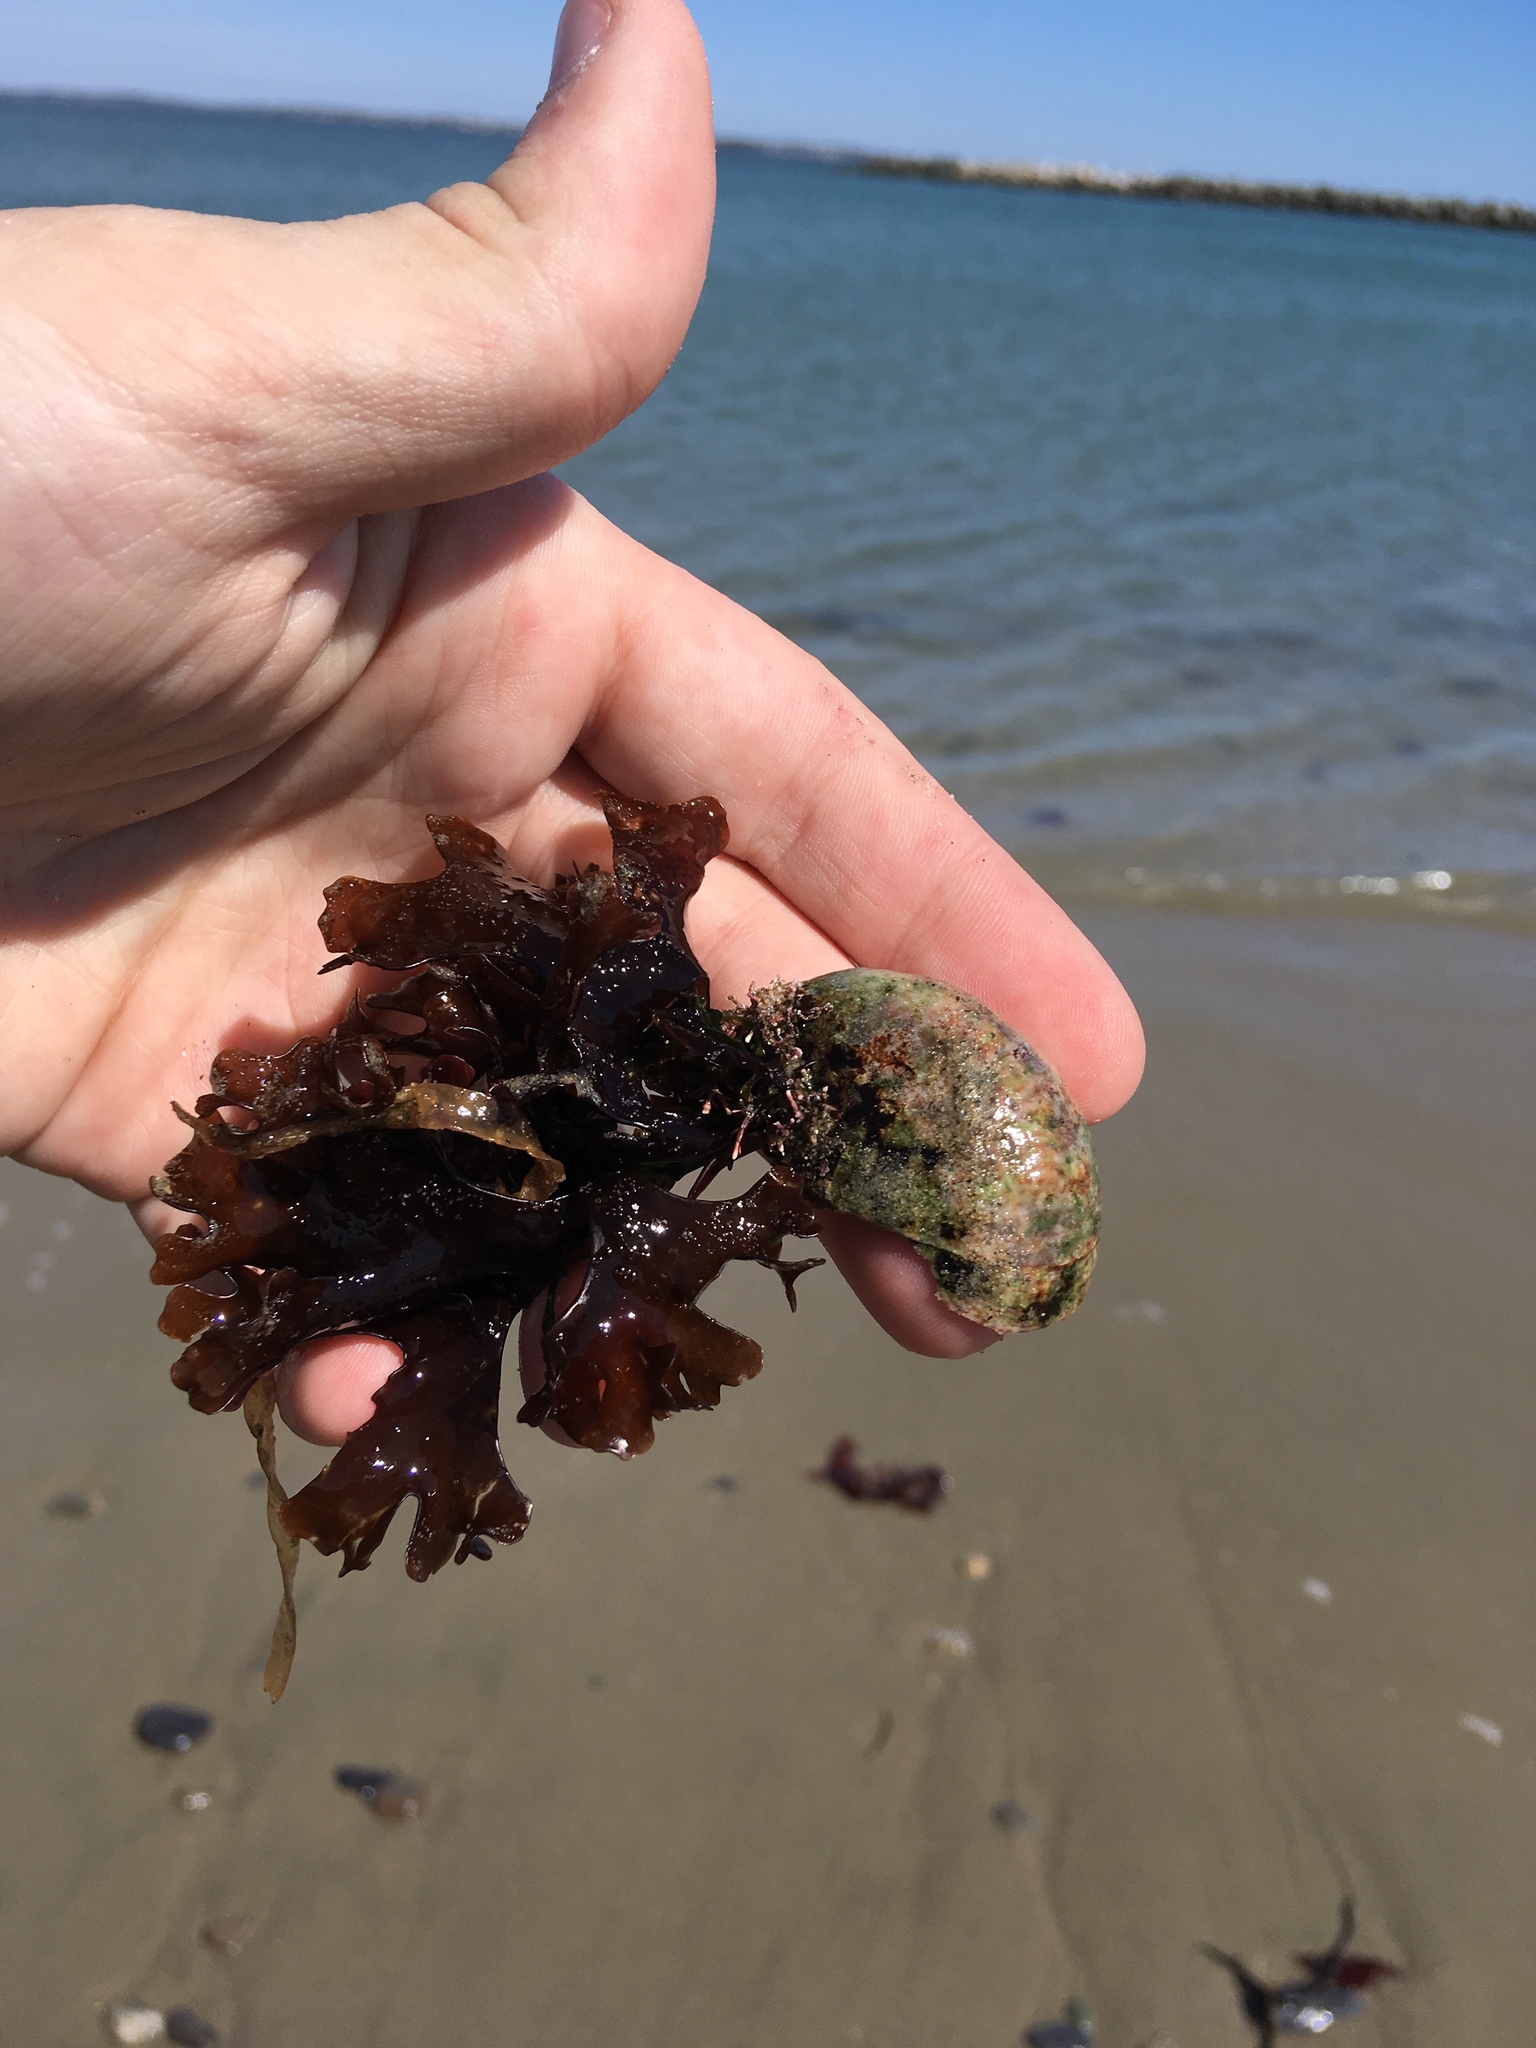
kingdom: Animalia
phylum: Mollusca
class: Gastropoda
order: Littorinimorpha
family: Calyptraeidae
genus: Crepidula
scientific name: Crepidula fornicata
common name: Slipper limpet
